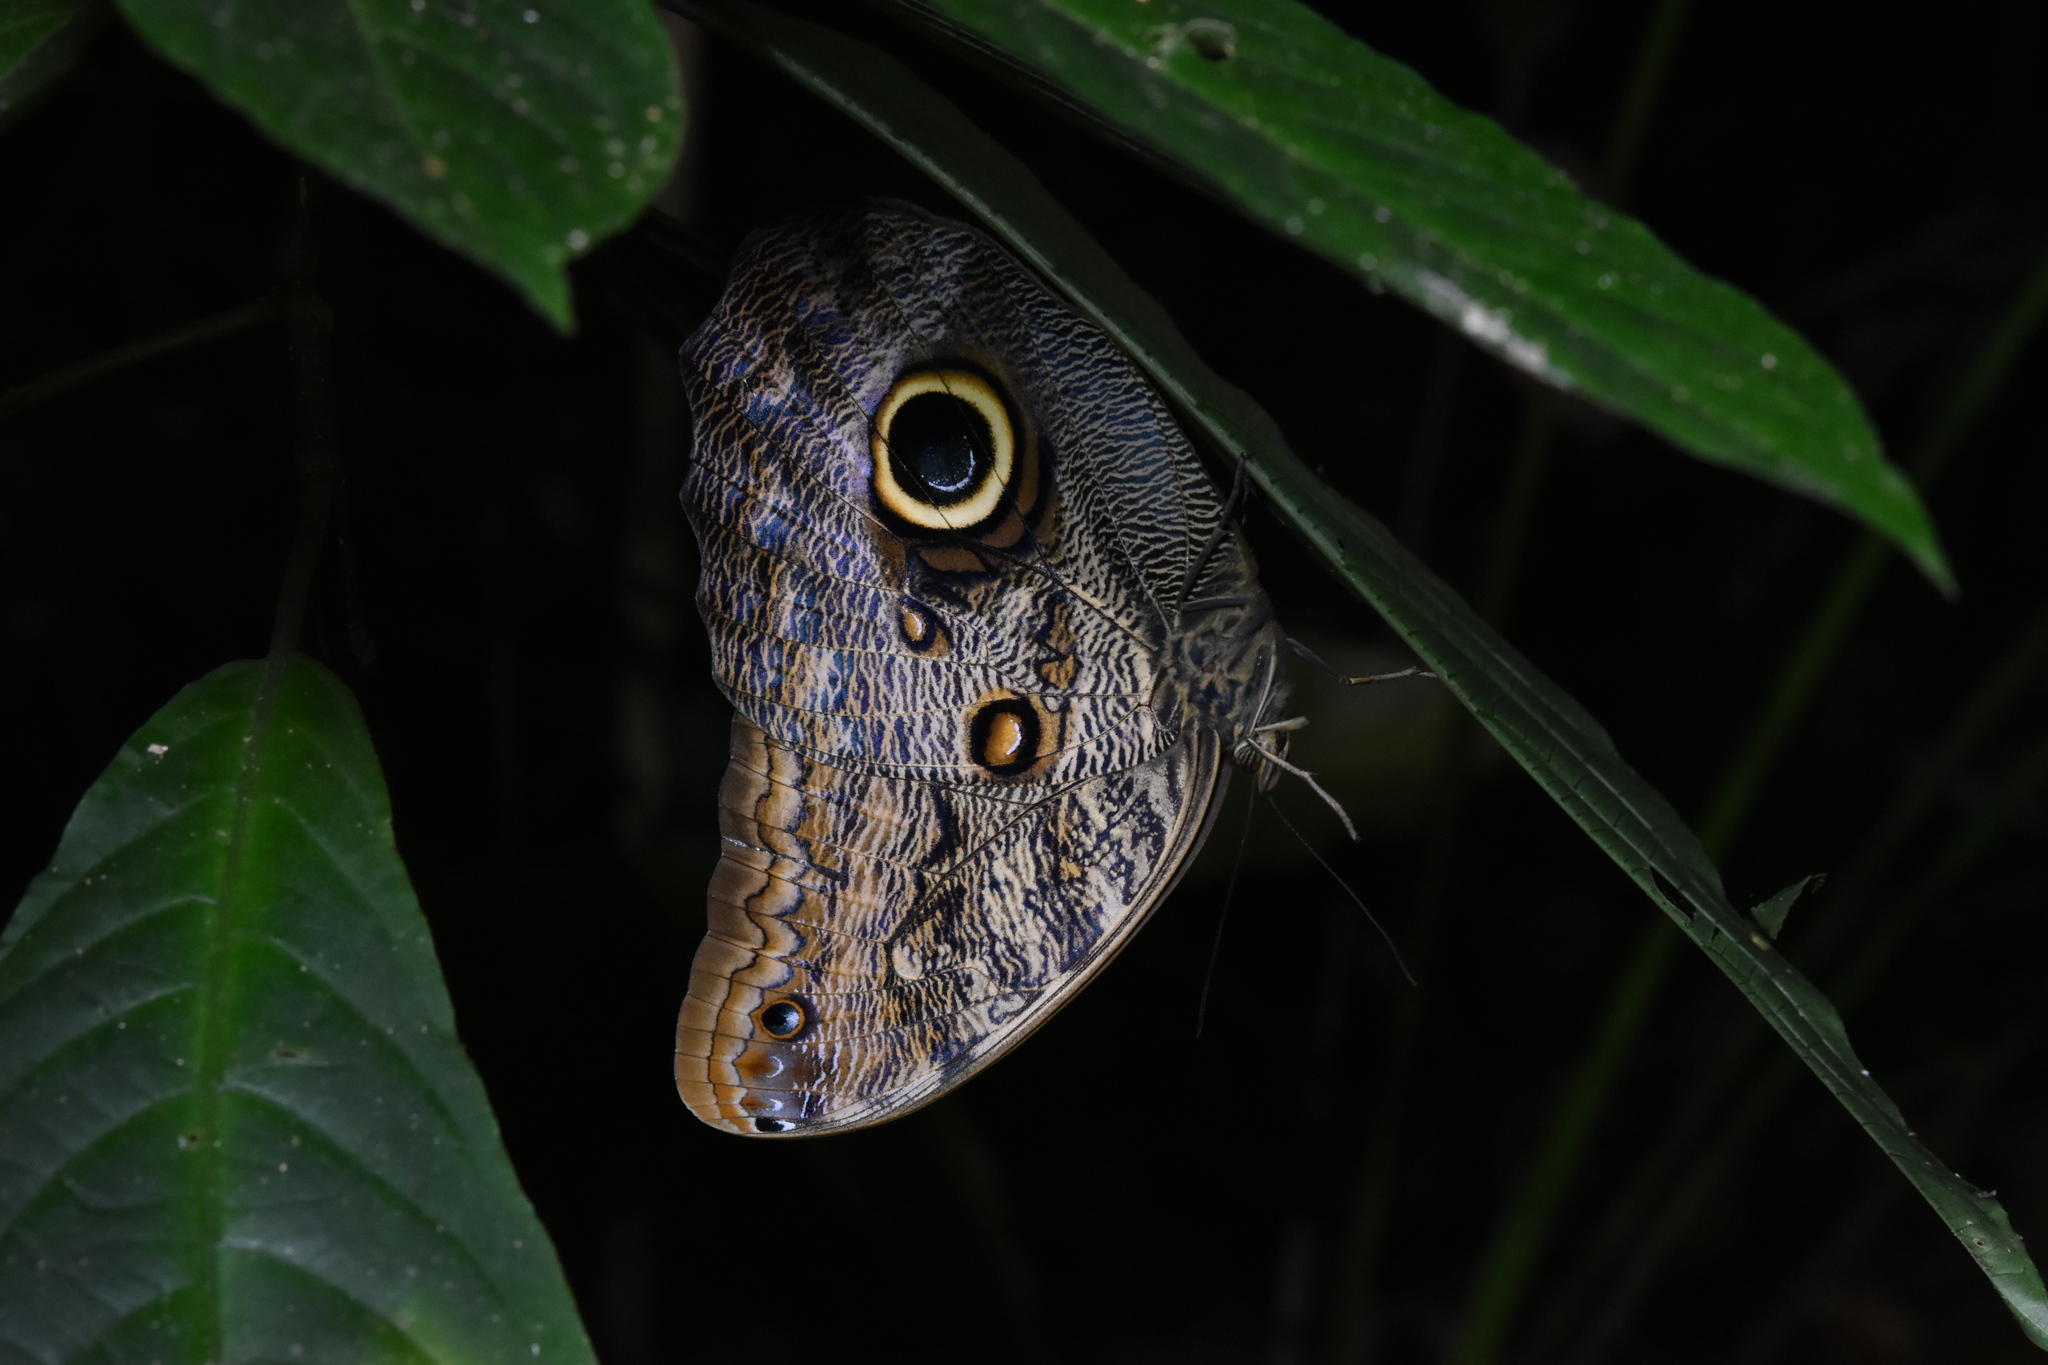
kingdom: Animalia
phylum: Arthropoda
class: Insecta
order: Lepidoptera
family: Nymphalidae
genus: Caligo
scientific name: Caligo brasiliensis
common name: Dark owl-butterfly
